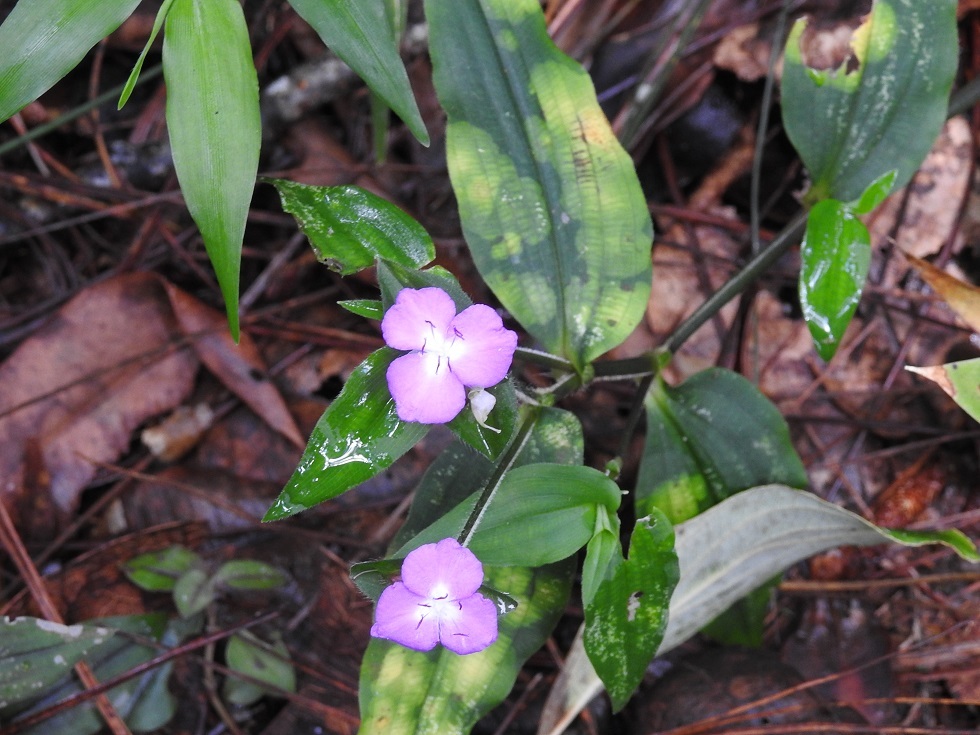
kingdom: Plantae
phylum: Tracheophyta
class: Liliopsida
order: Commelinales
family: Commelinaceae
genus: Tradescantia
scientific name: Tradescantia commelinoides
